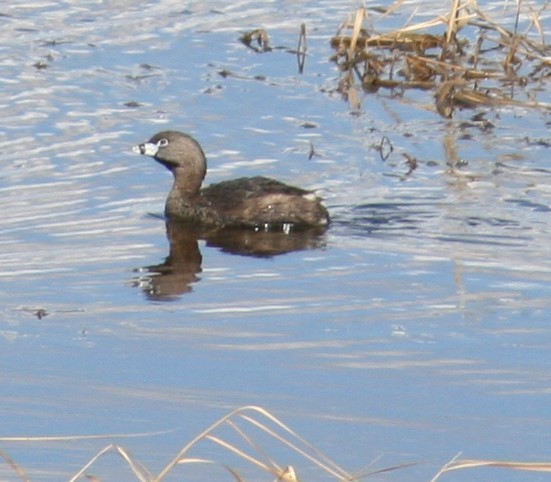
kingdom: Animalia
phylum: Chordata
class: Aves
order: Podicipediformes
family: Podicipedidae
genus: Podilymbus
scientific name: Podilymbus podiceps
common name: Pied-billed grebe
